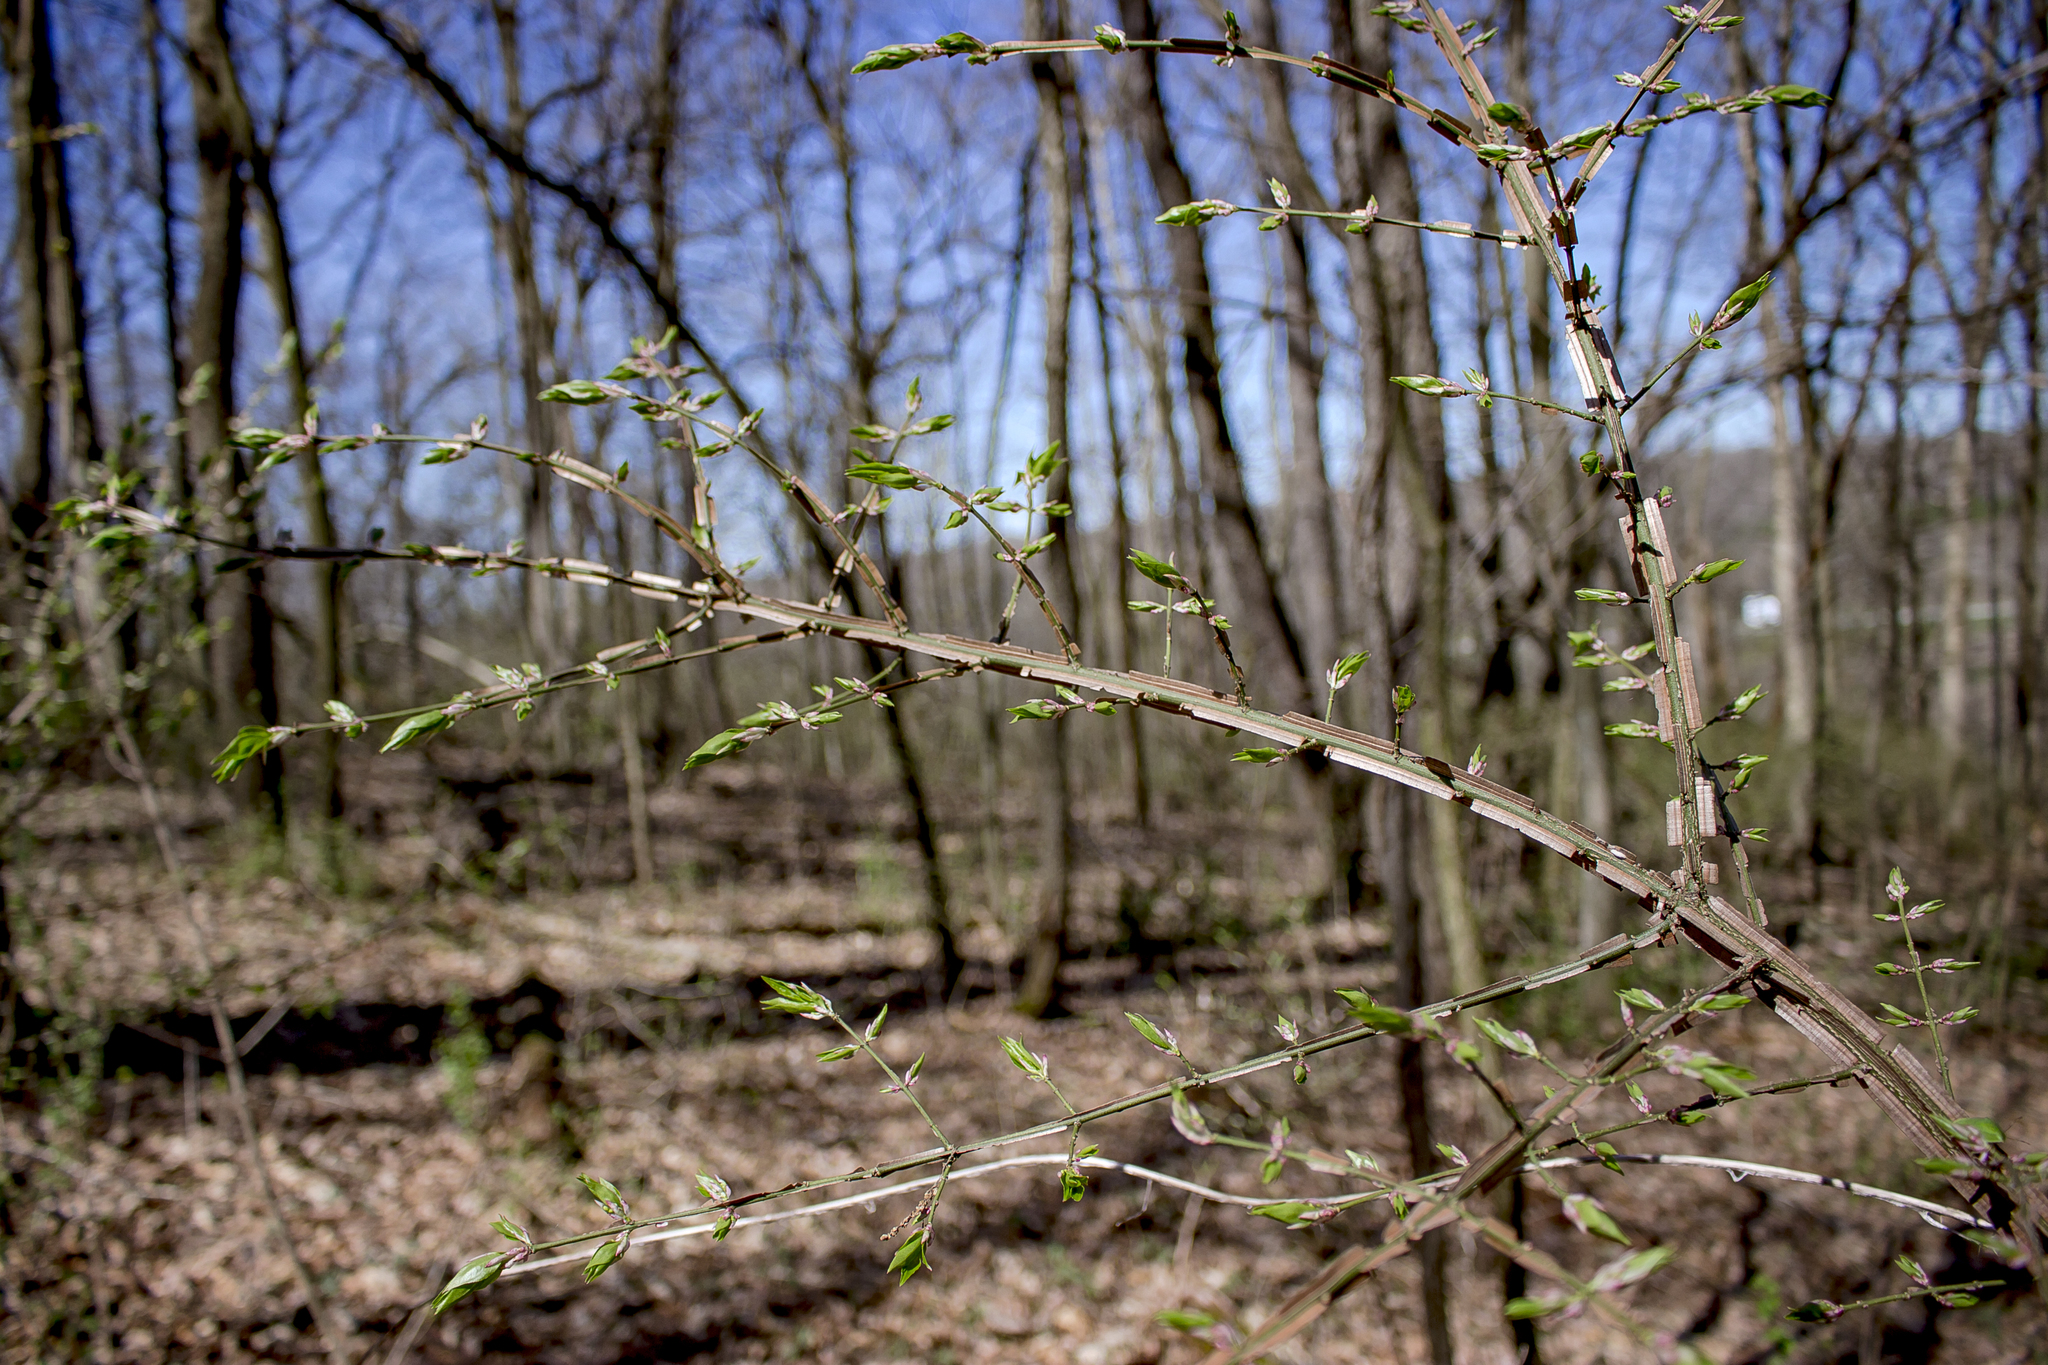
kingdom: Plantae
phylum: Tracheophyta
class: Magnoliopsida
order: Celastrales
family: Celastraceae
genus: Euonymus
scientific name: Euonymus alatus
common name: Winged euonymus
